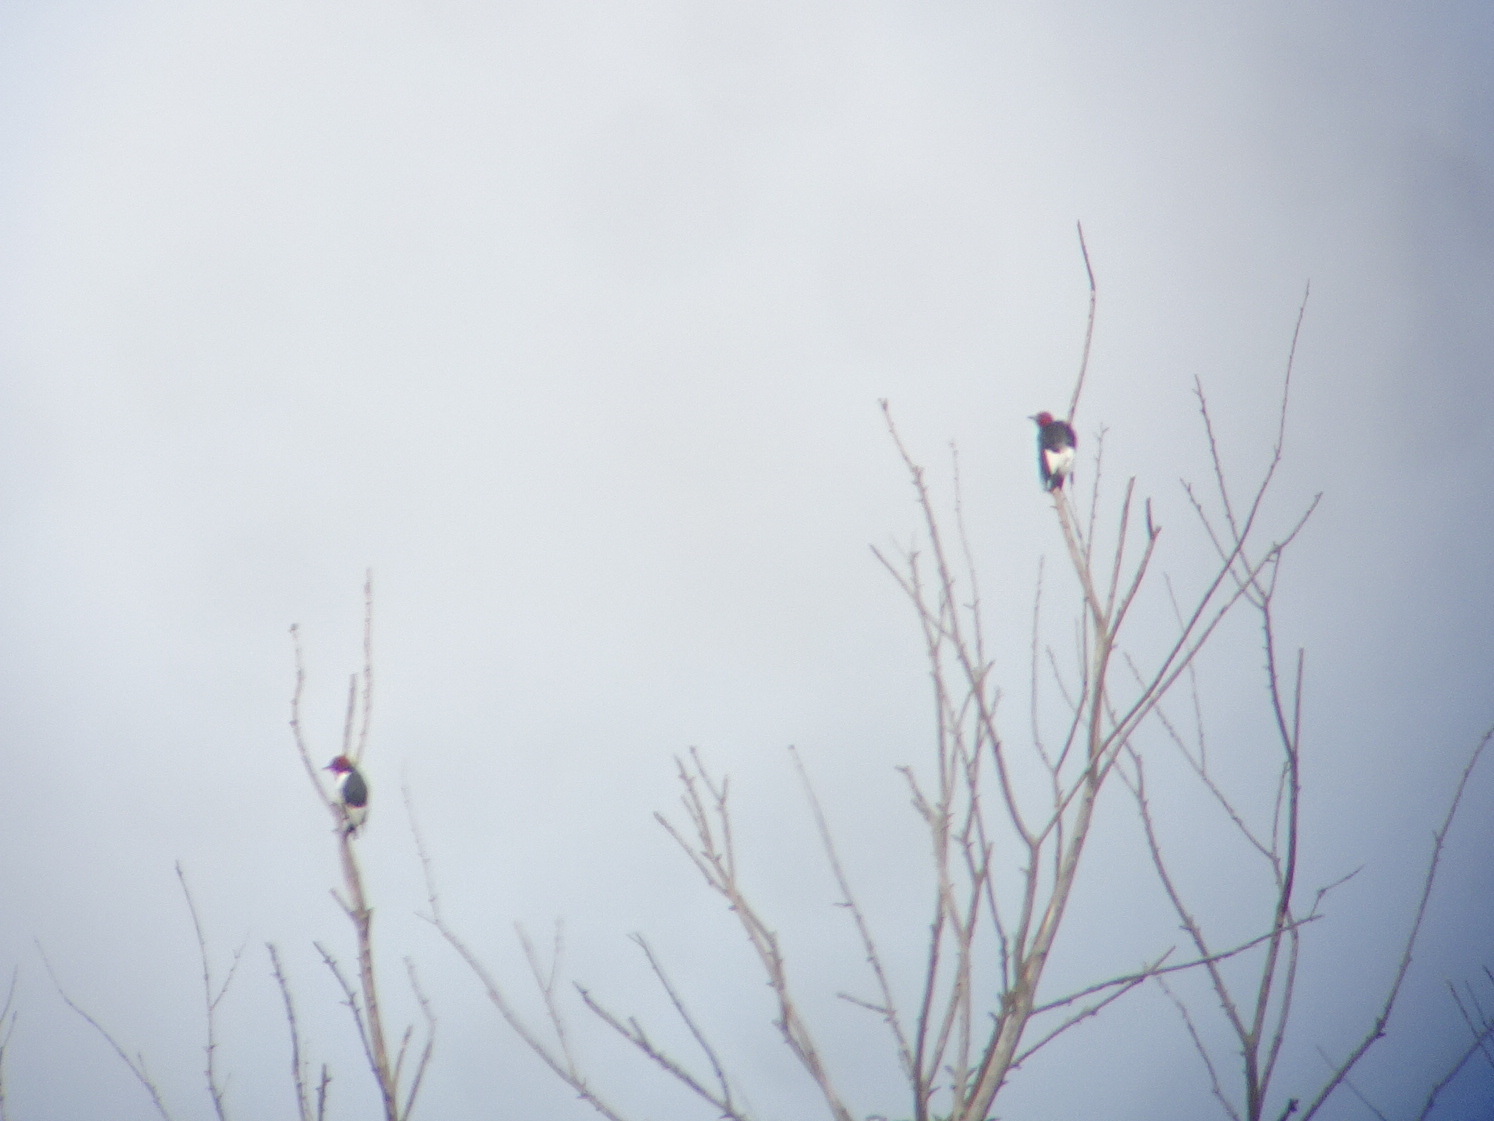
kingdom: Animalia
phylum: Chordata
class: Aves
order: Piciformes
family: Picidae
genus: Melanerpes
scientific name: Melanerpes erythrocephalus
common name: Red-headed woodpecker
